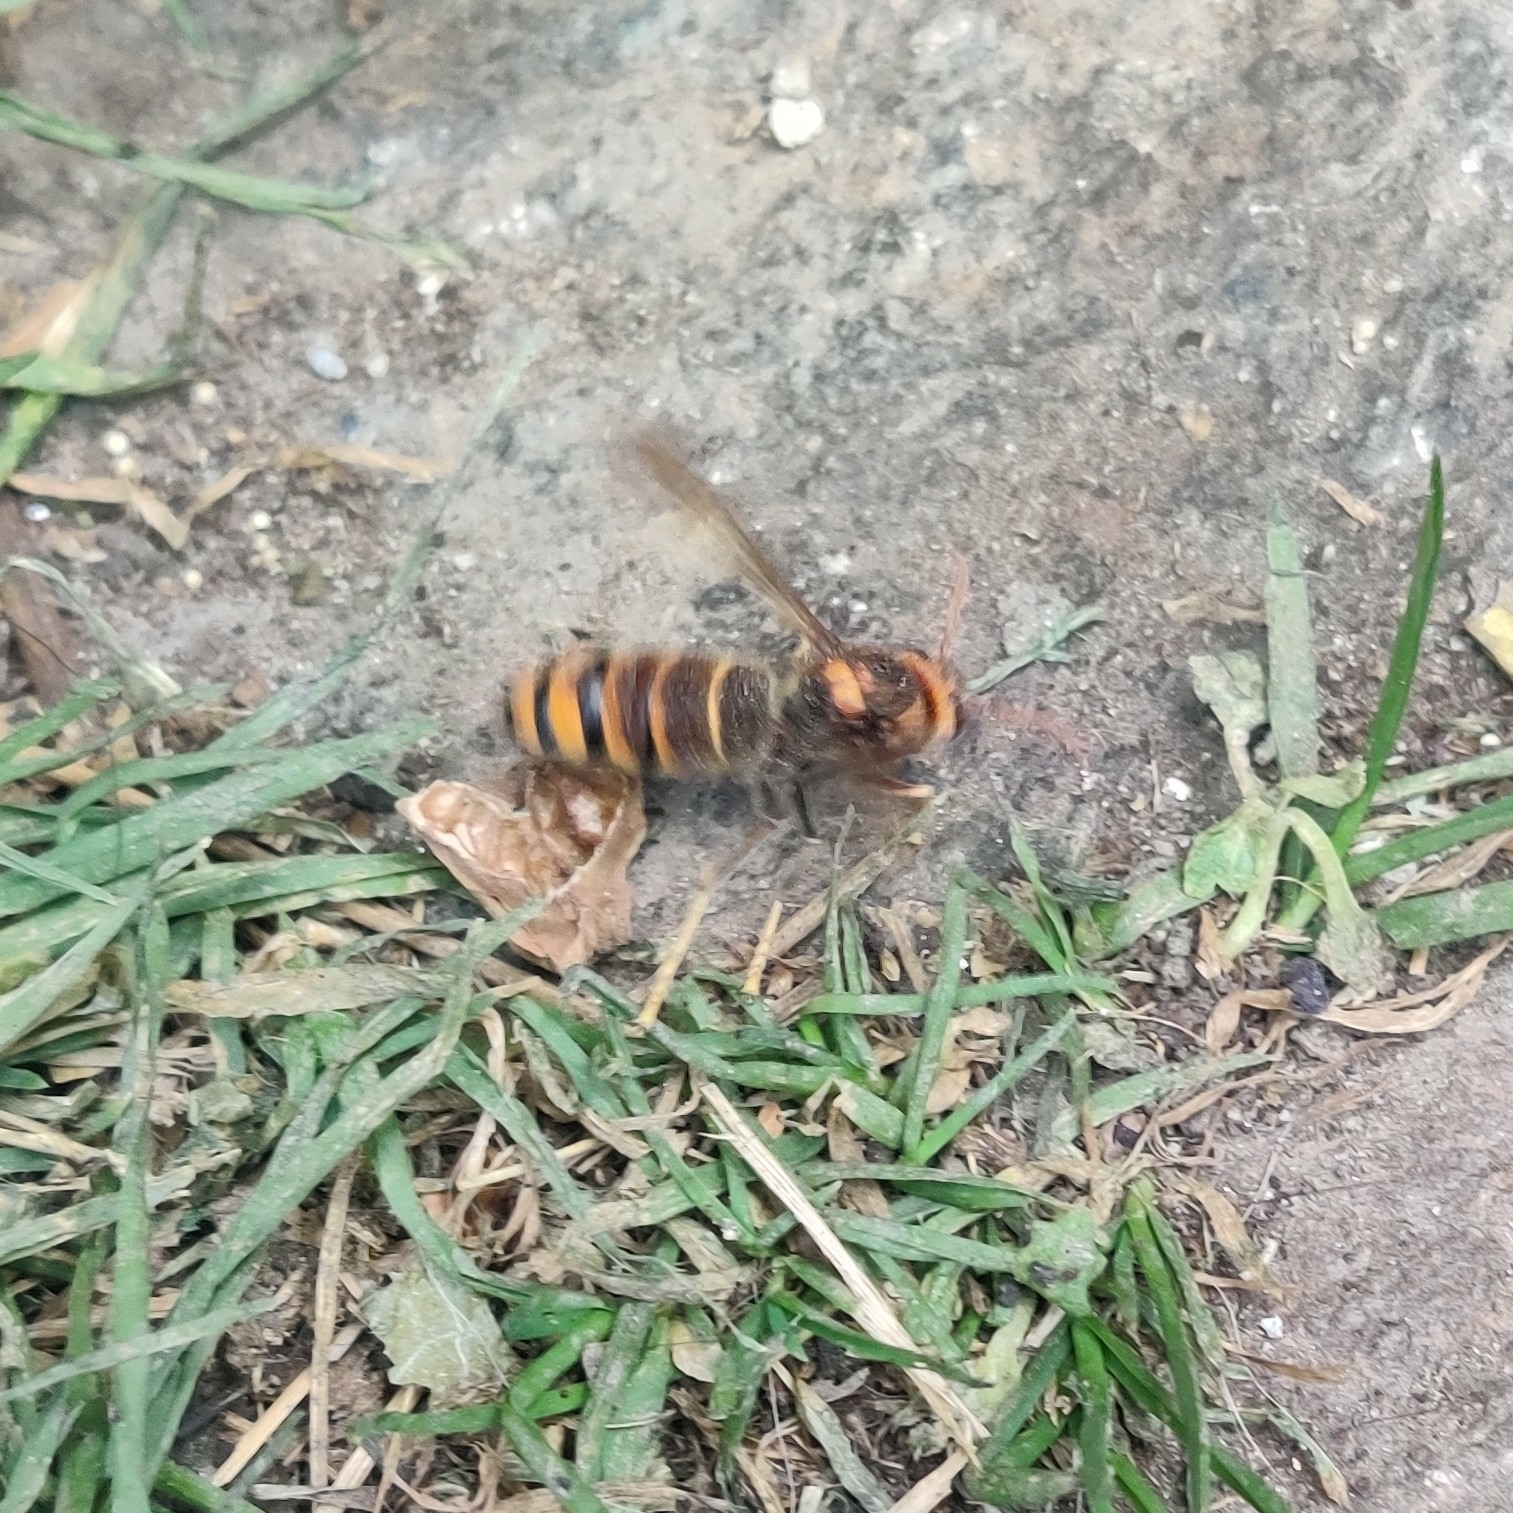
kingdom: Animalia
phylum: Arthropoda
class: Insecta
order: Hymenoptera
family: Vespidae
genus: Vespa
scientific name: Vespa velutina
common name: Asian hornet
